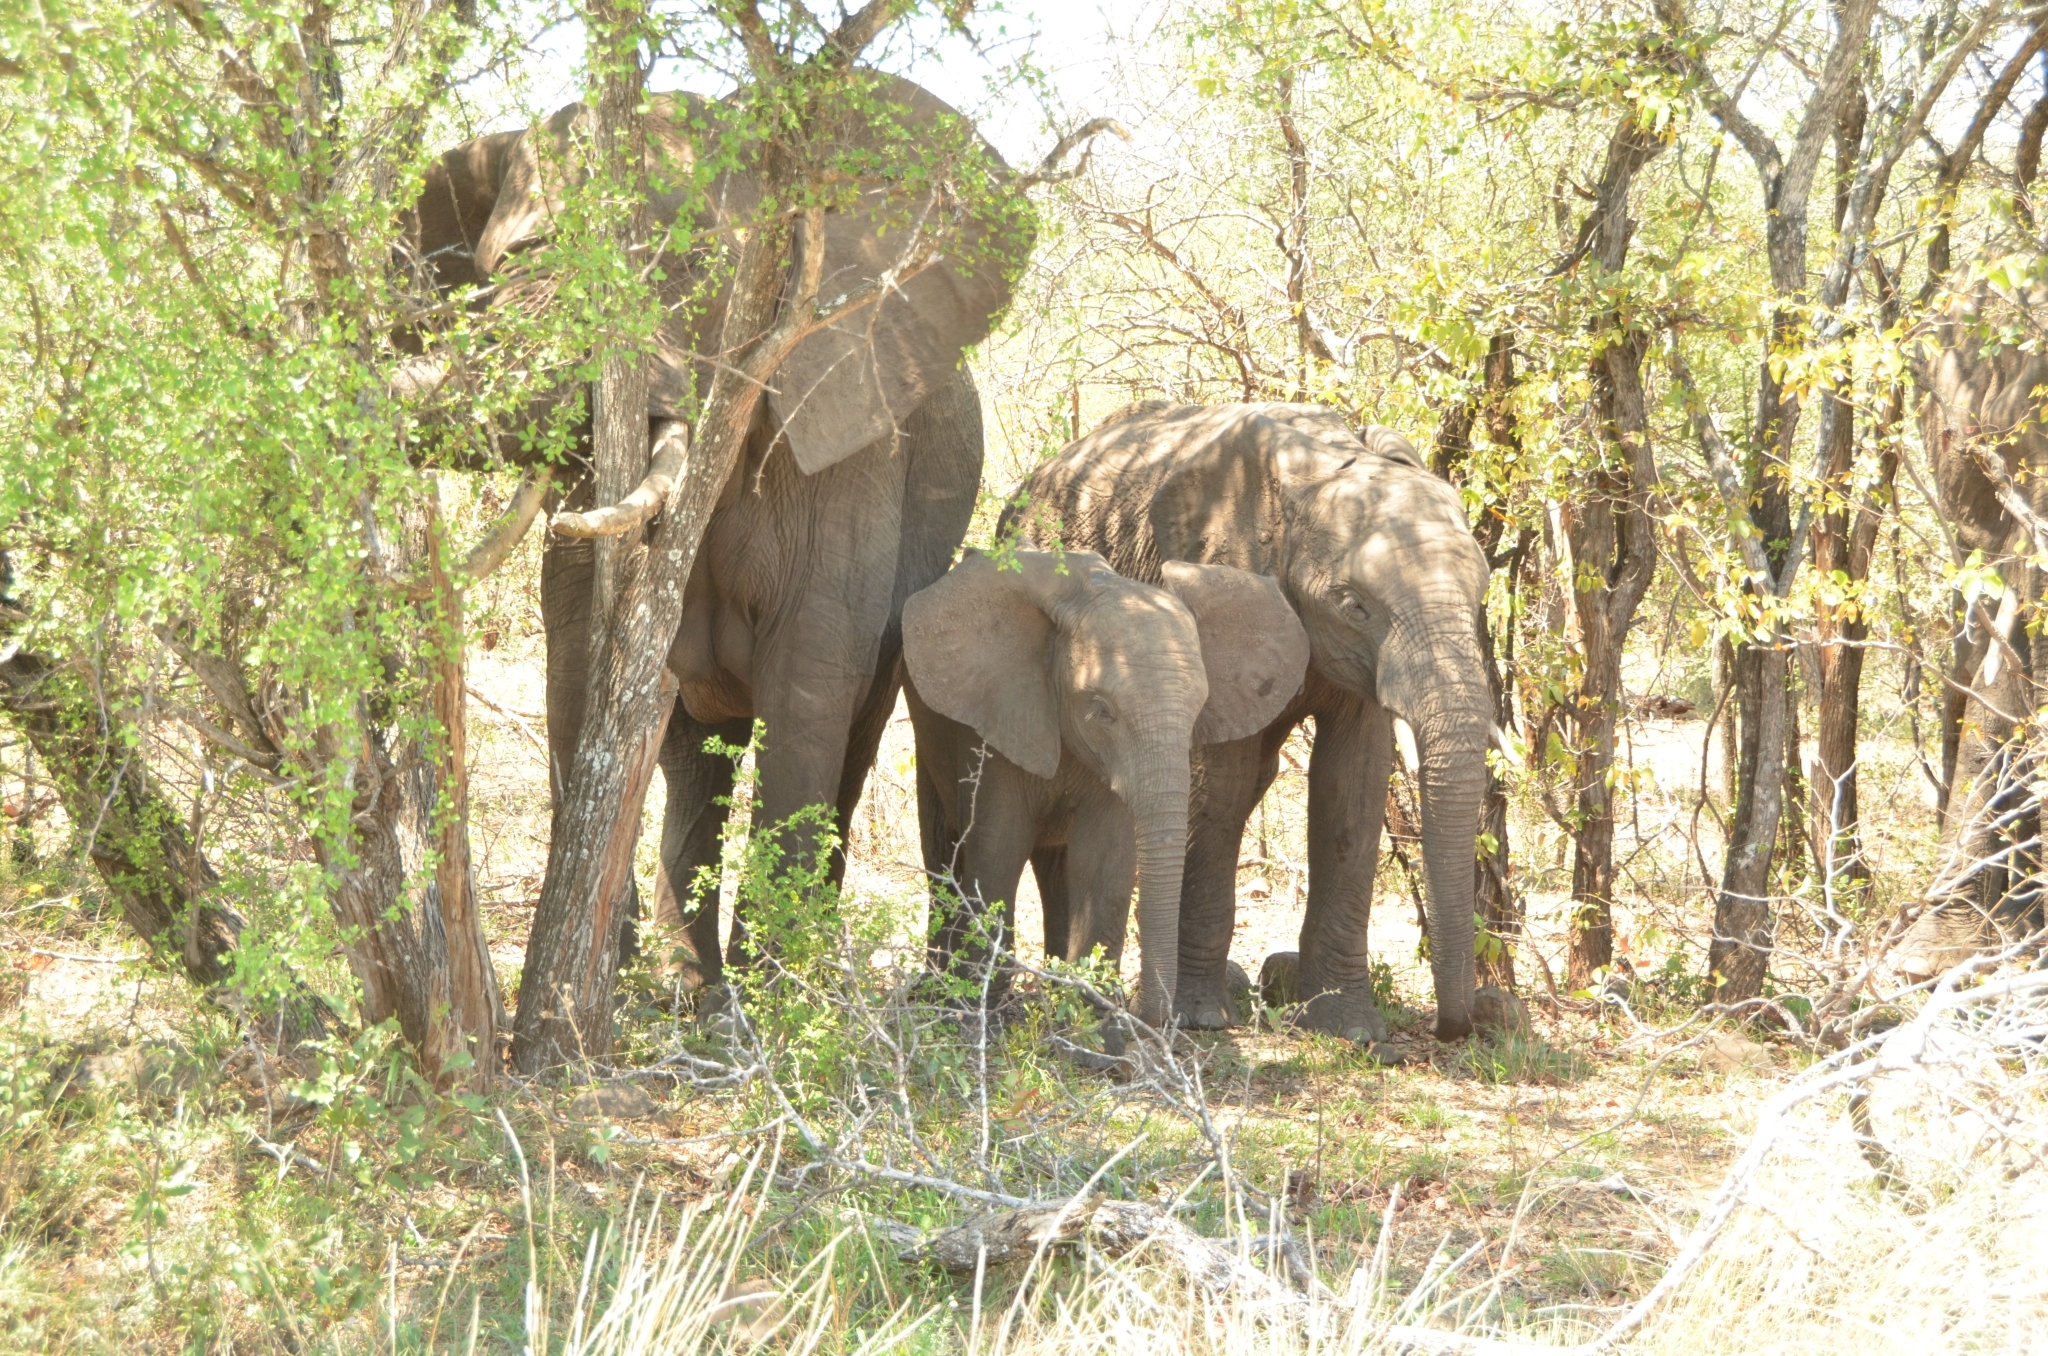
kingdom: Animalia
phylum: Chordata
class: Mammalia
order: Proboscidea
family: Elephantidae
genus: Loxodonta
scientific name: Loxodonta africana
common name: African elephant
